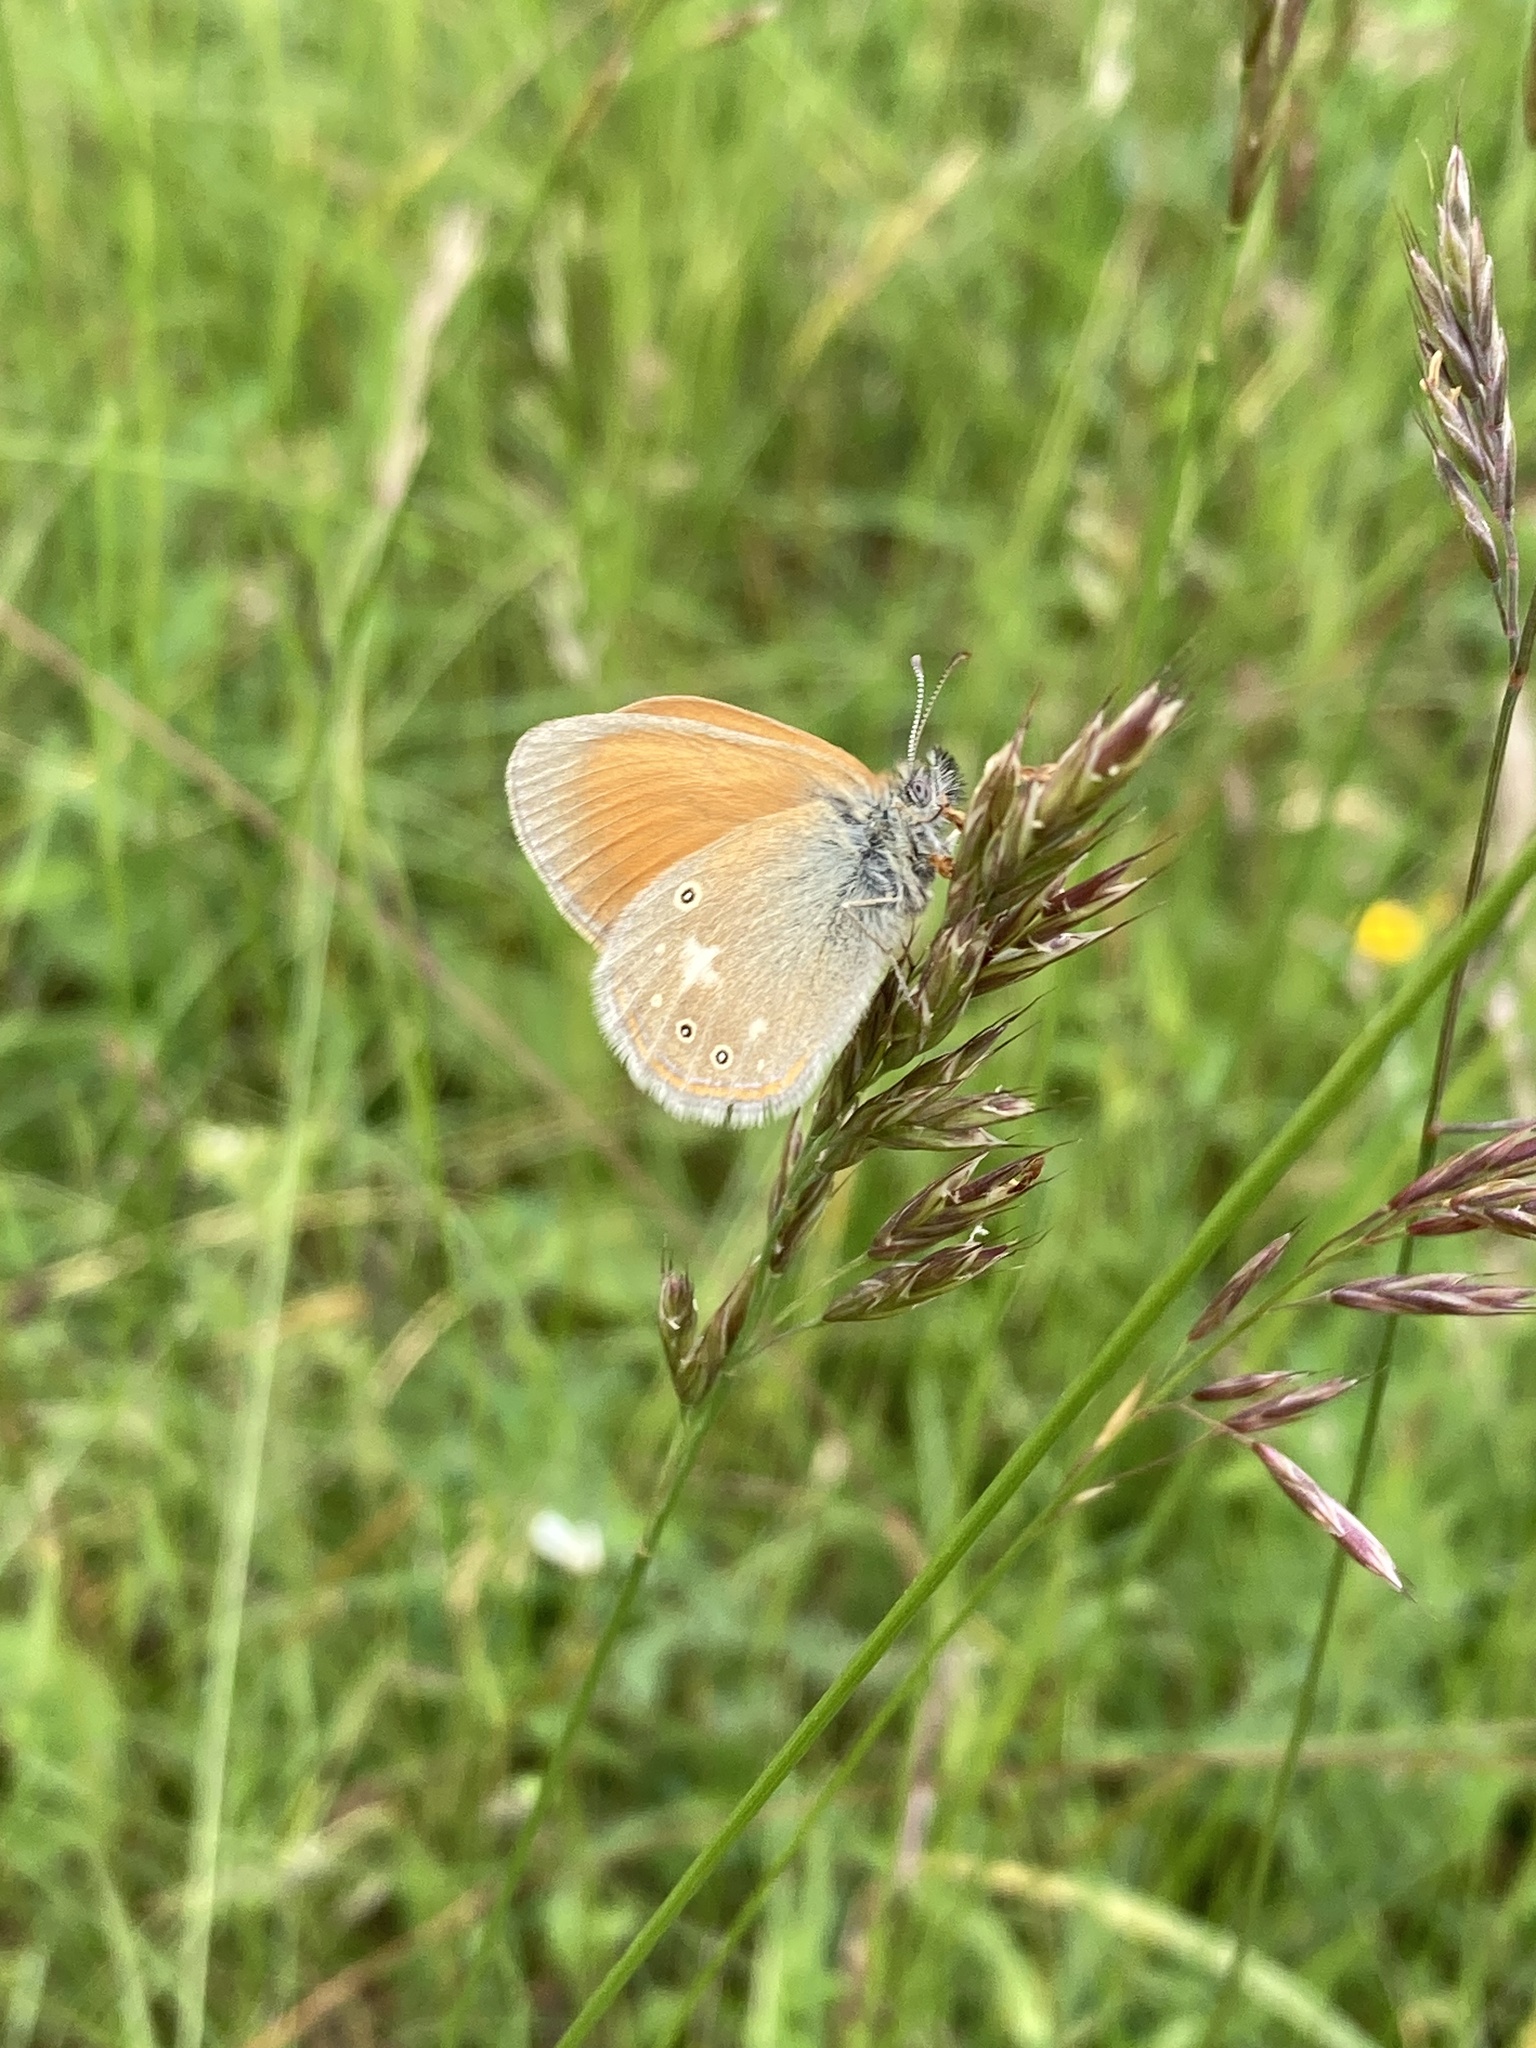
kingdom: Animalia
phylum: Arthropoda
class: Insecta
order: Lepidoptera
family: Nymphalidae
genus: Coenonympha
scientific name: Coenonympha iphis
